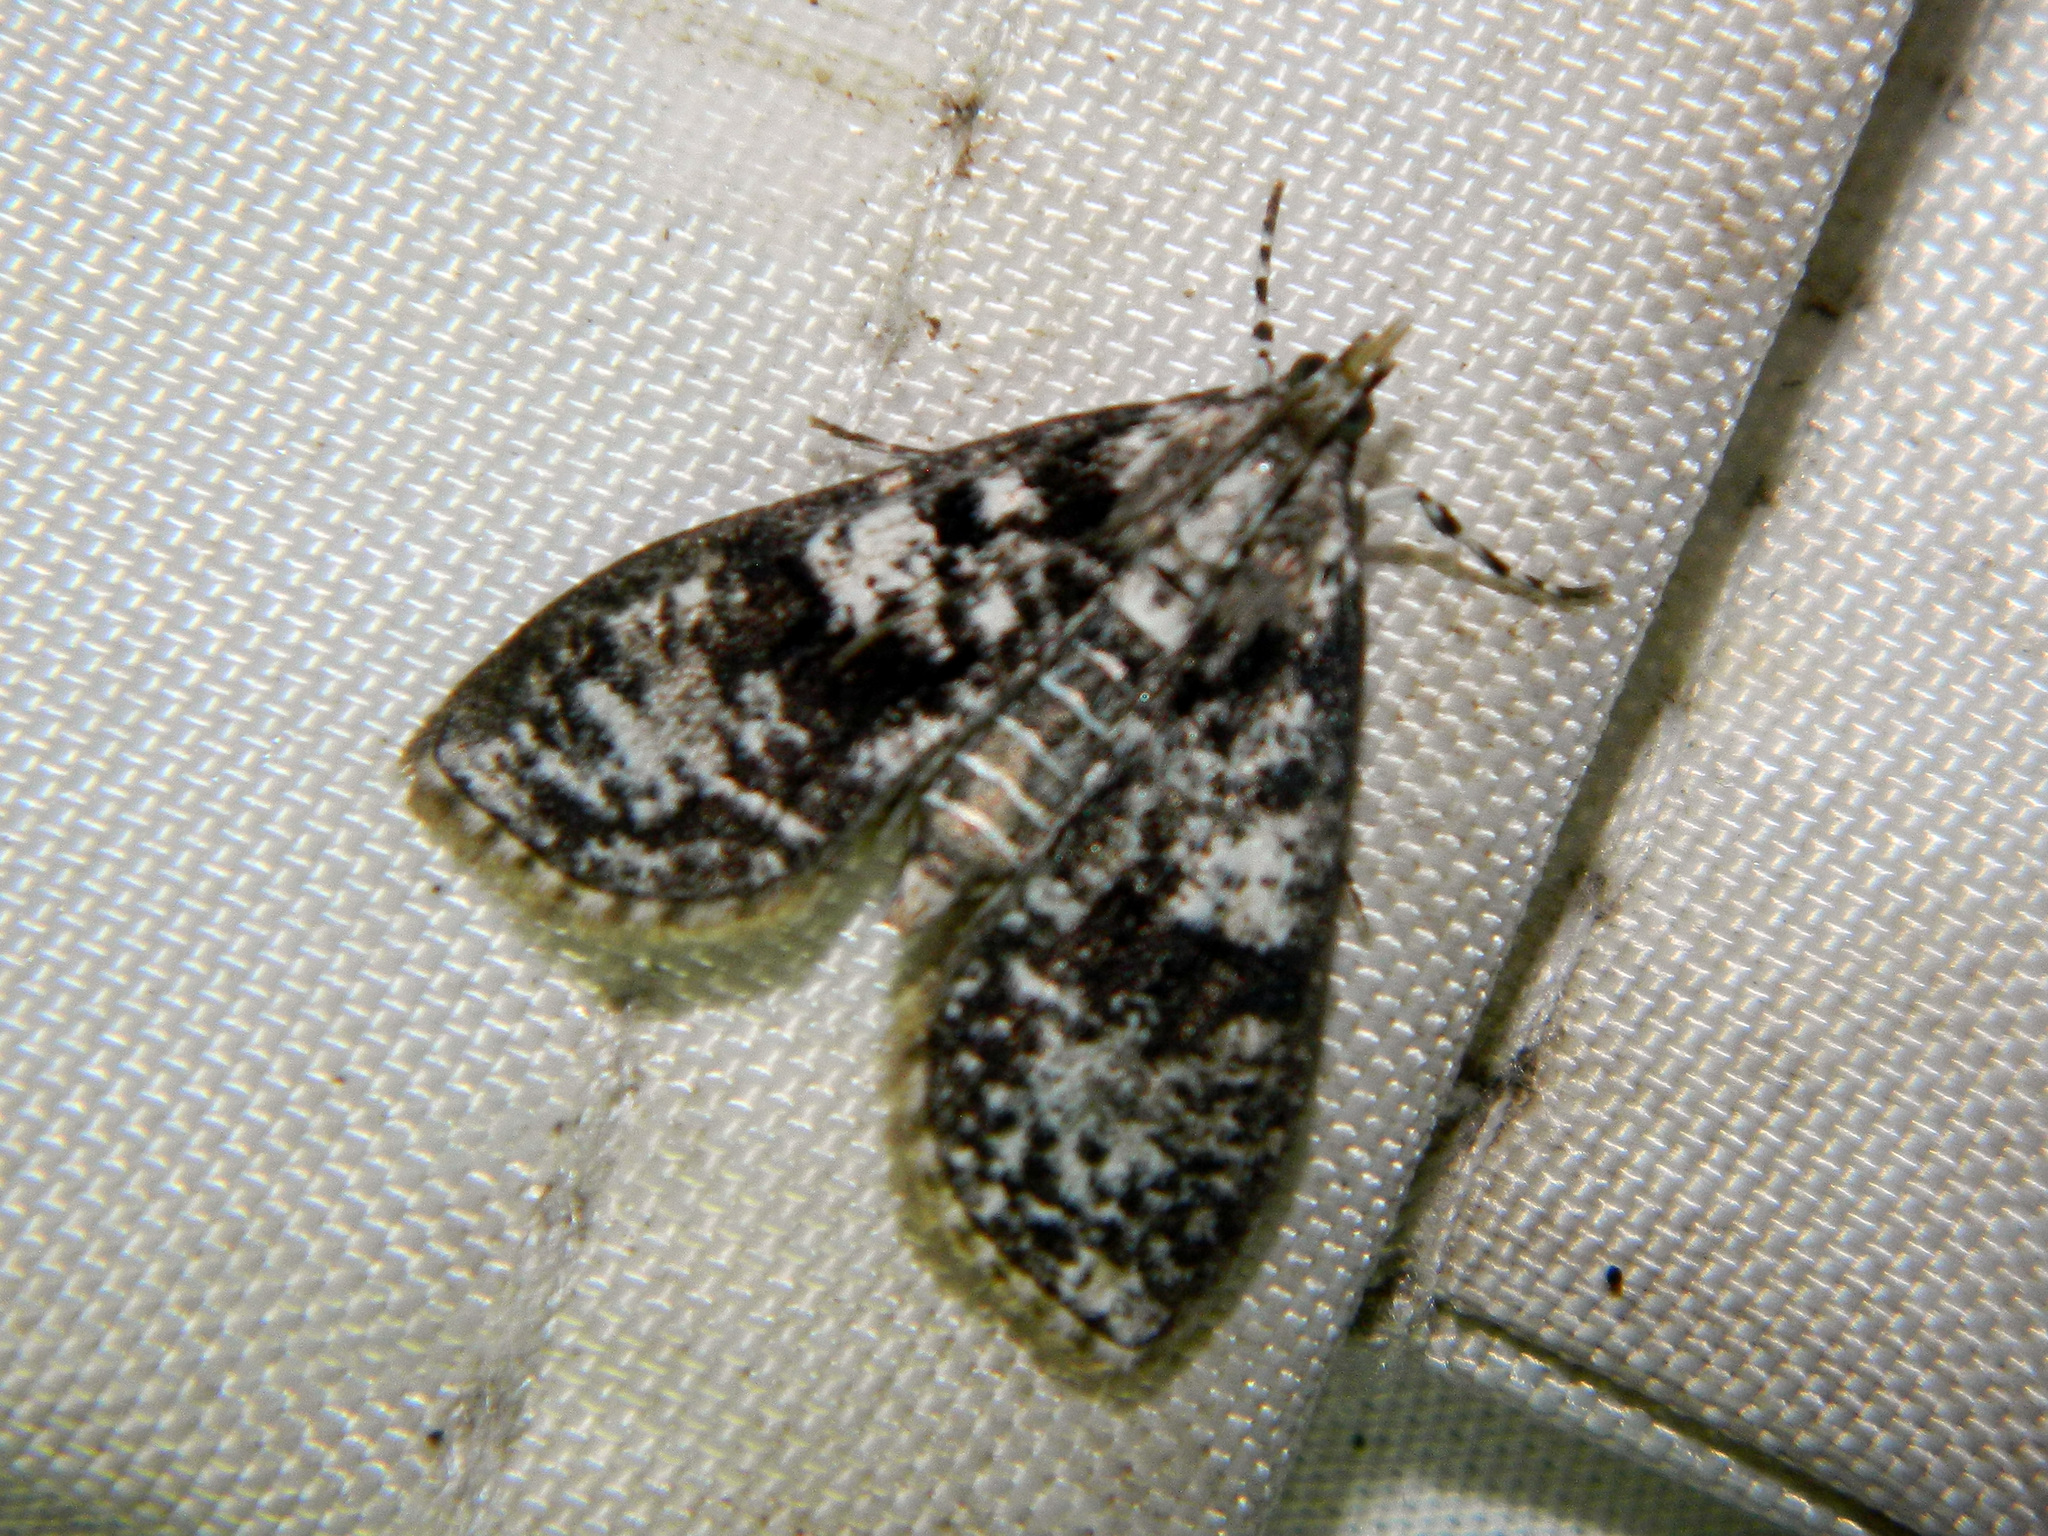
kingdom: Animalia
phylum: Arthropoda
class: Insecta
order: Lepidoptera
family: Crambidae
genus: Palpita
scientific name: Palpita magniferalis
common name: Splendid palpita moth
